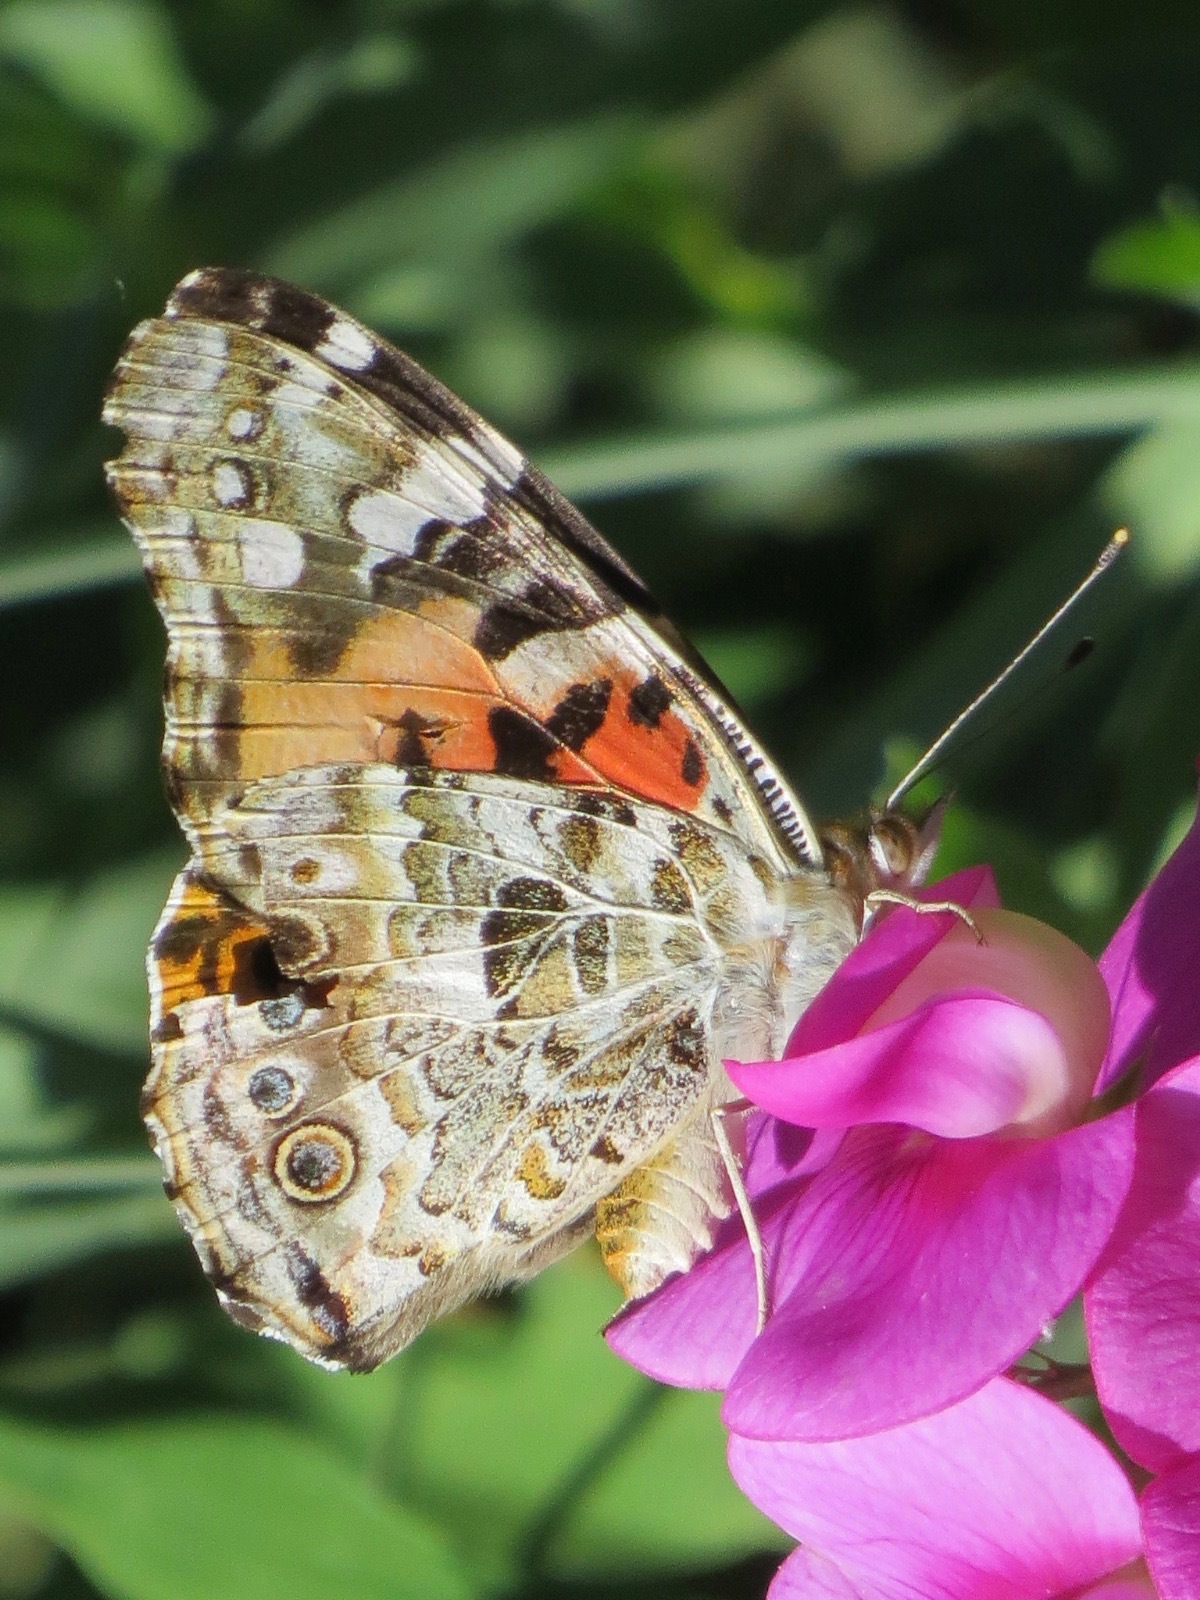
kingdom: Animalia
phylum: Arthropoda
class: Insecta
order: Lepidoptera
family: Nymphalidae
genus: Vanessa
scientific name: Vanessa cardui
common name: Painted lady
